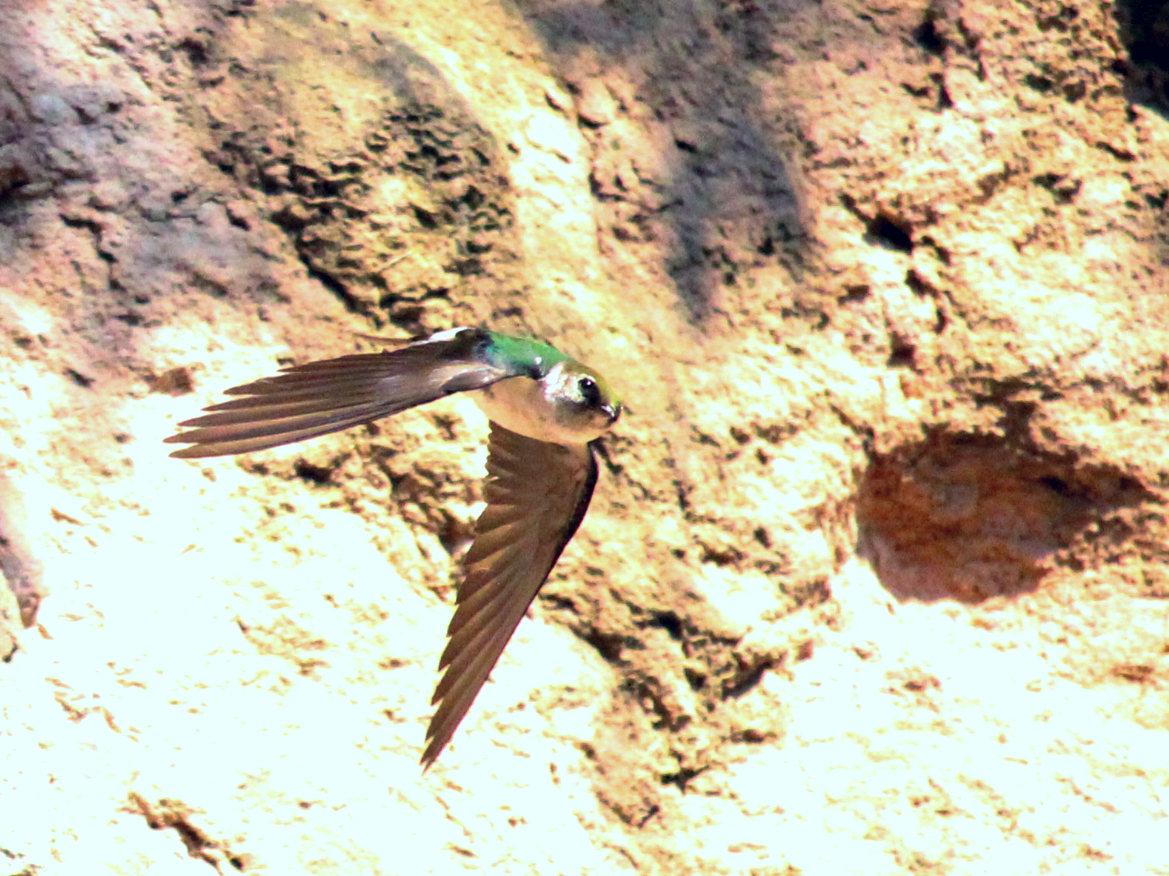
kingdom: Animalia
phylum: Chordata
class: Aves
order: Passeriformes
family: Hirundinidae
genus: Tachycineta
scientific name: Tachycineta thalassina
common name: Violet-green swallow
